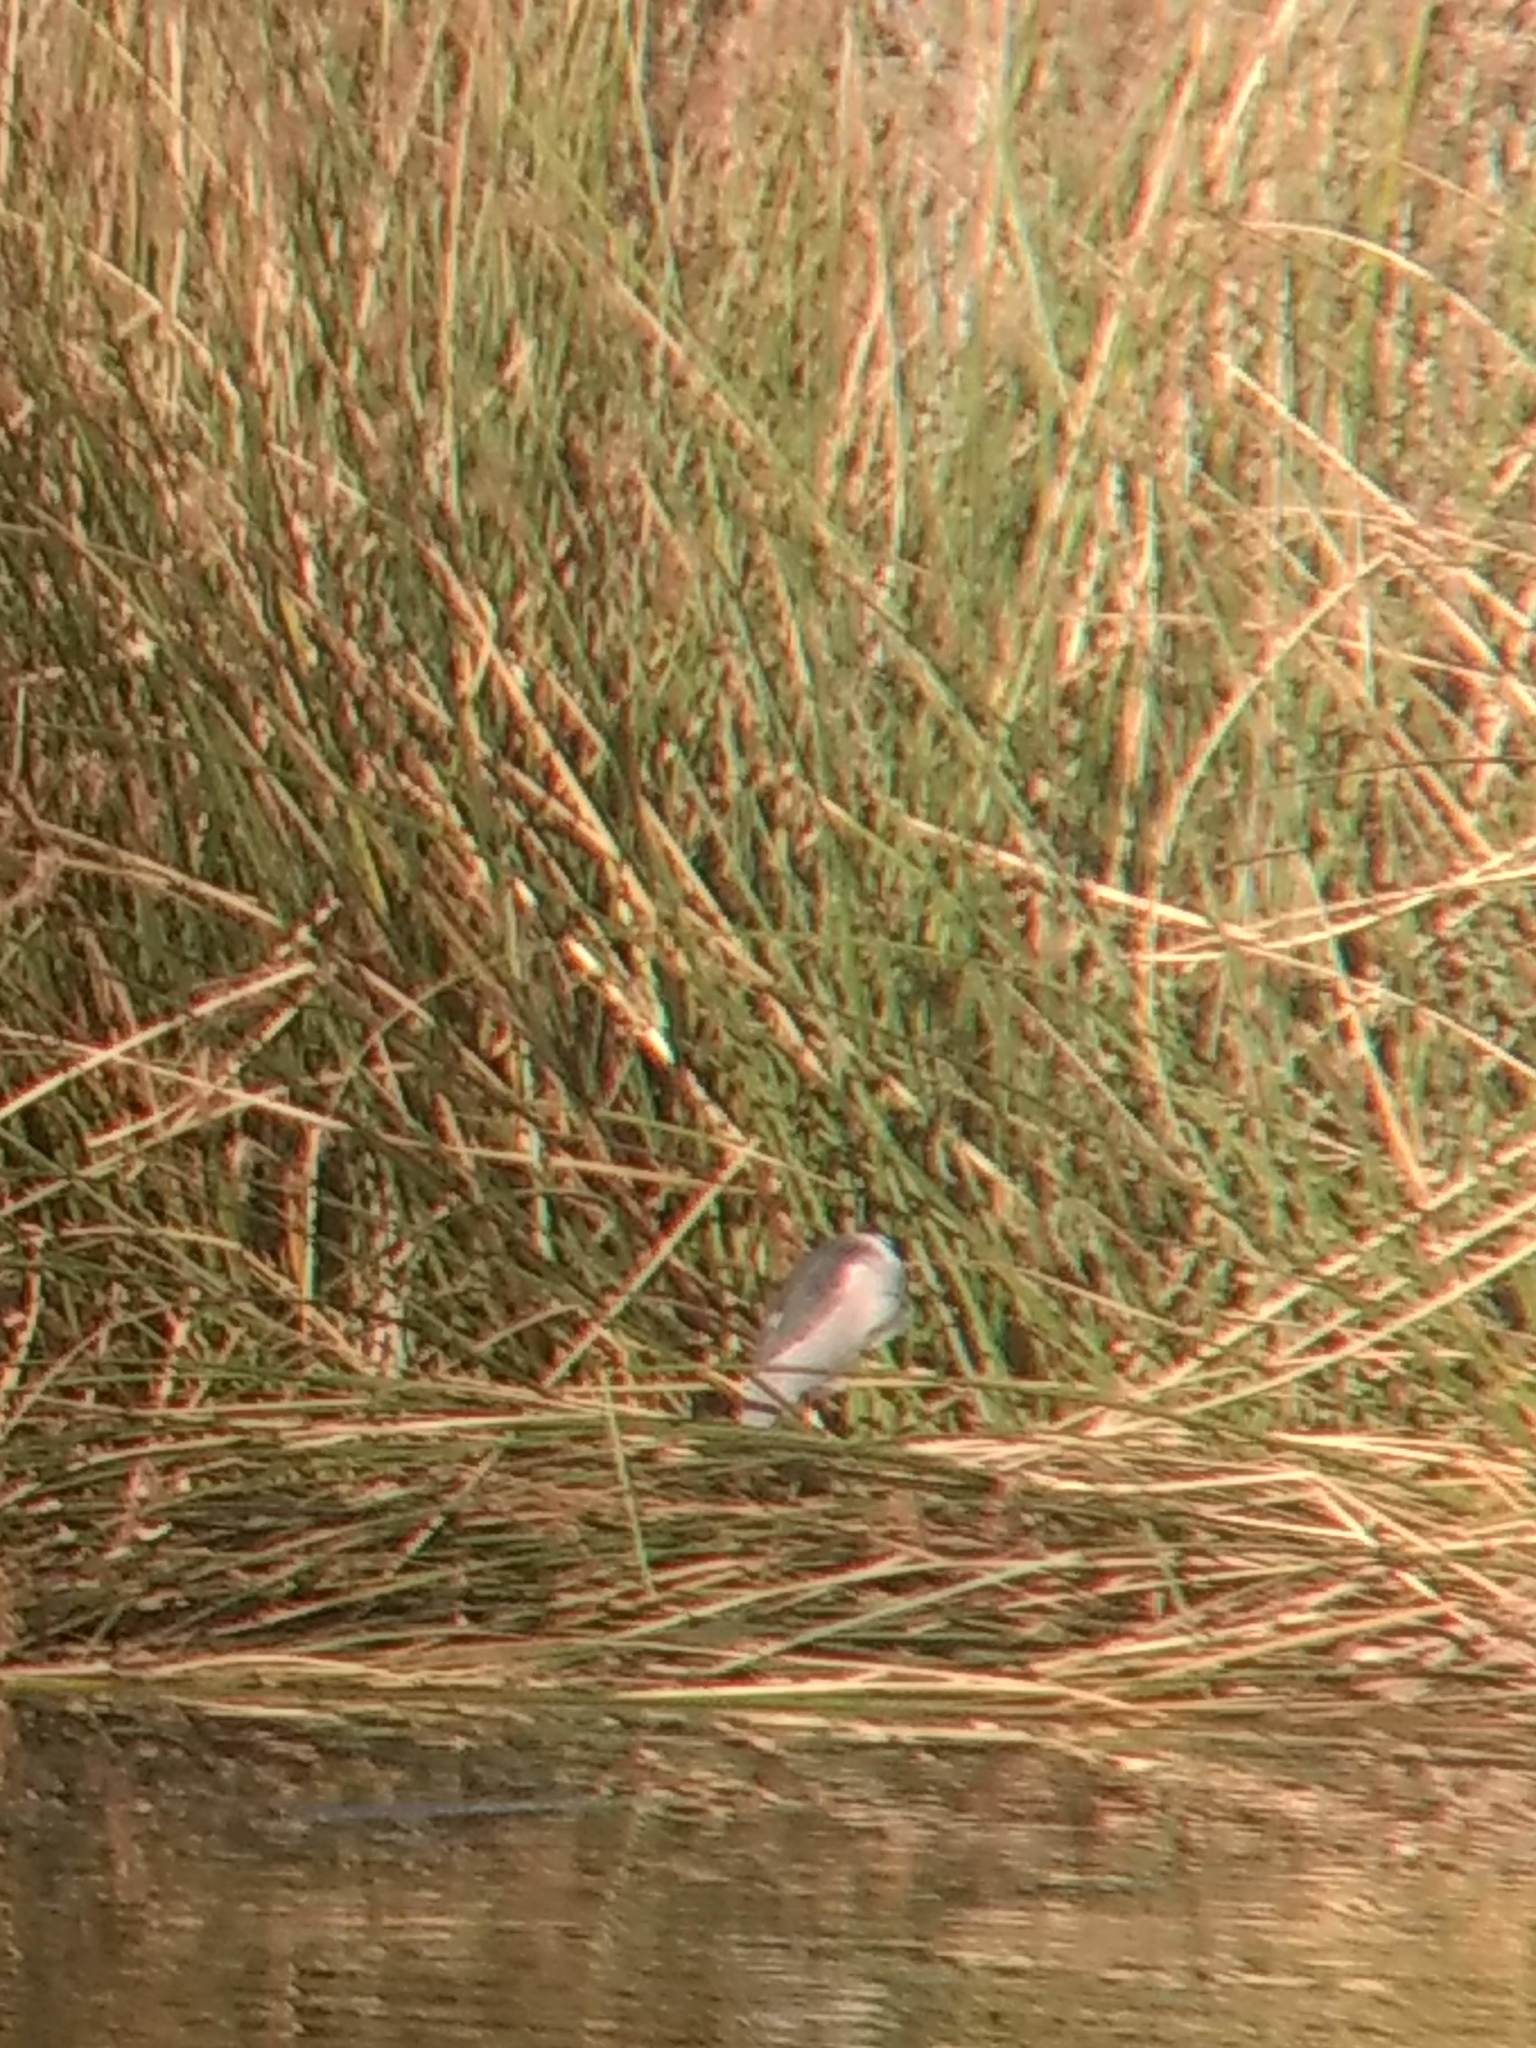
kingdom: Animalia
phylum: Chordata
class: Aves
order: Pelecaniformes
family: Ardeidae
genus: Nycticorax
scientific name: Nycticorax nycticorax
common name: Black-crowned night heron
